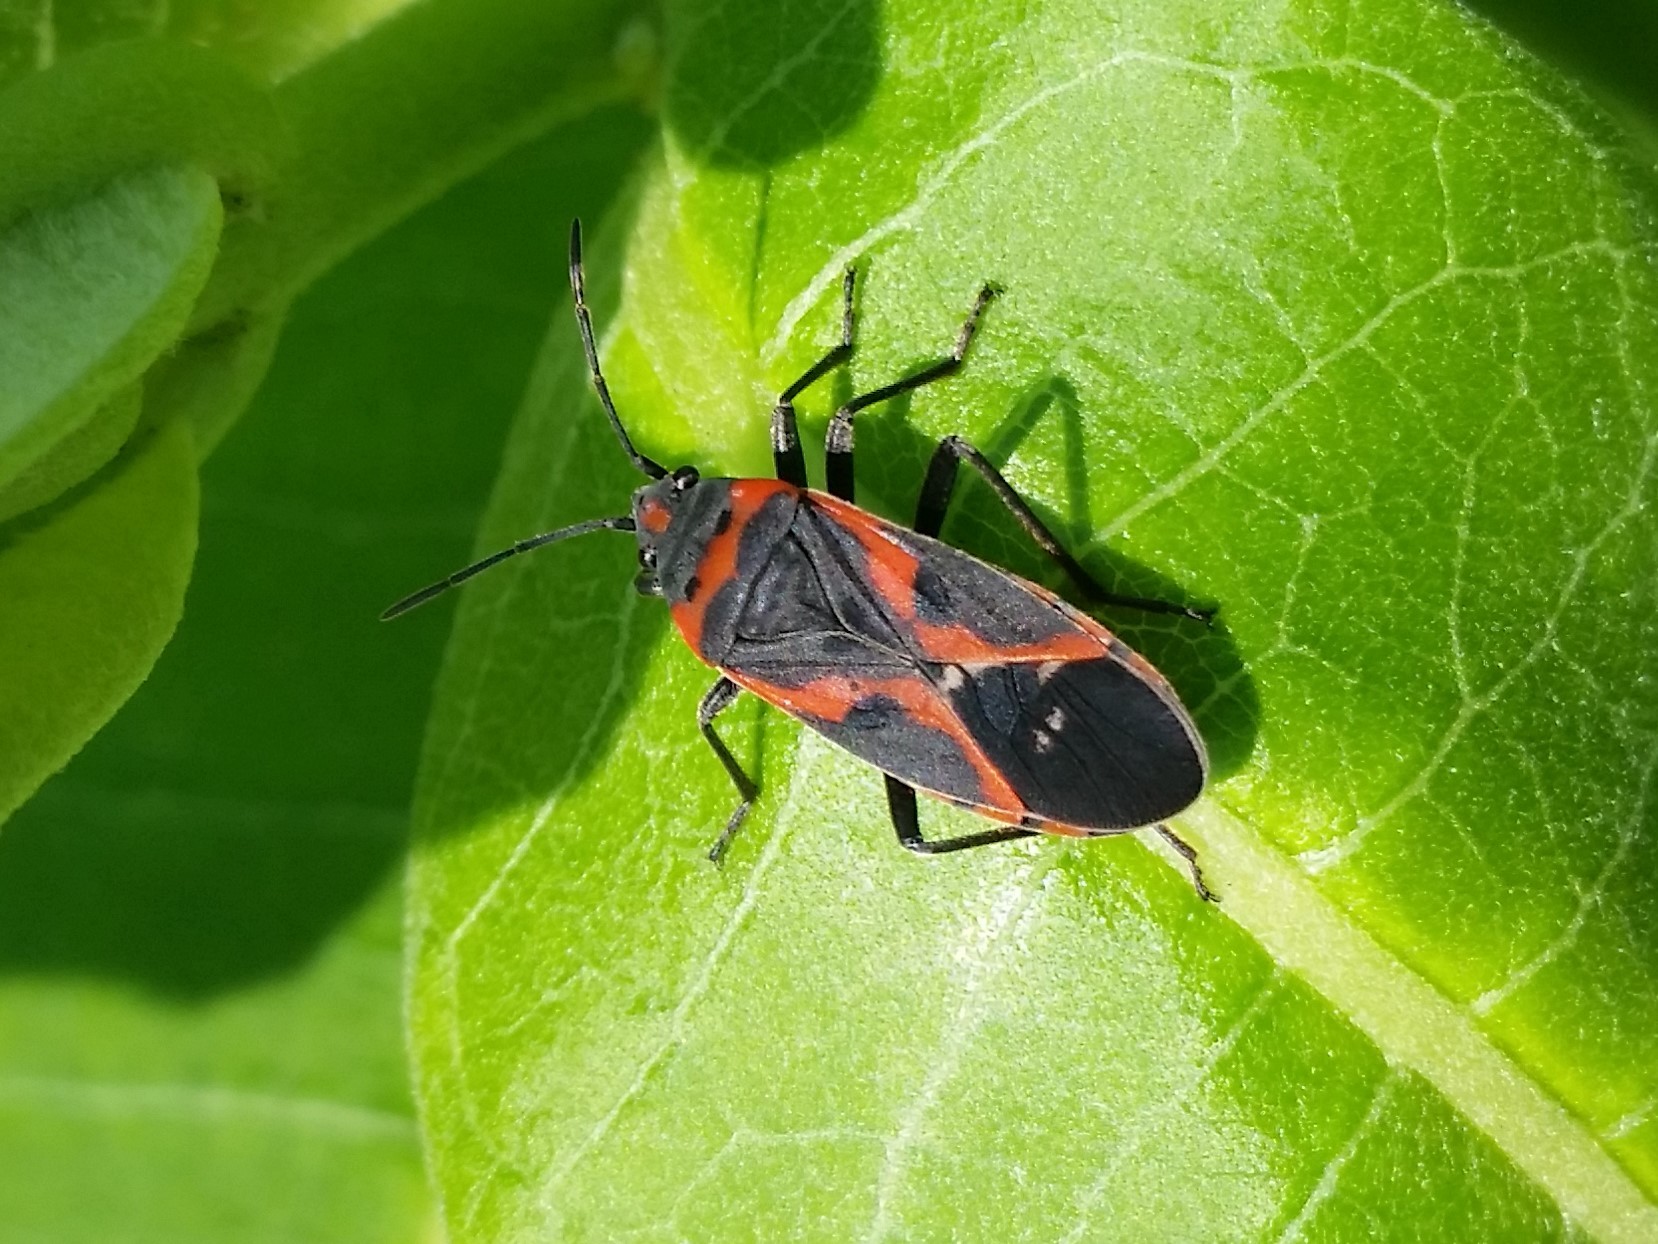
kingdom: Animalia
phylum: Arthropoda
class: Insecta
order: Hemiptera
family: Lygaeidae
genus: Lygaeus
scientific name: Lygaeus kalmii
